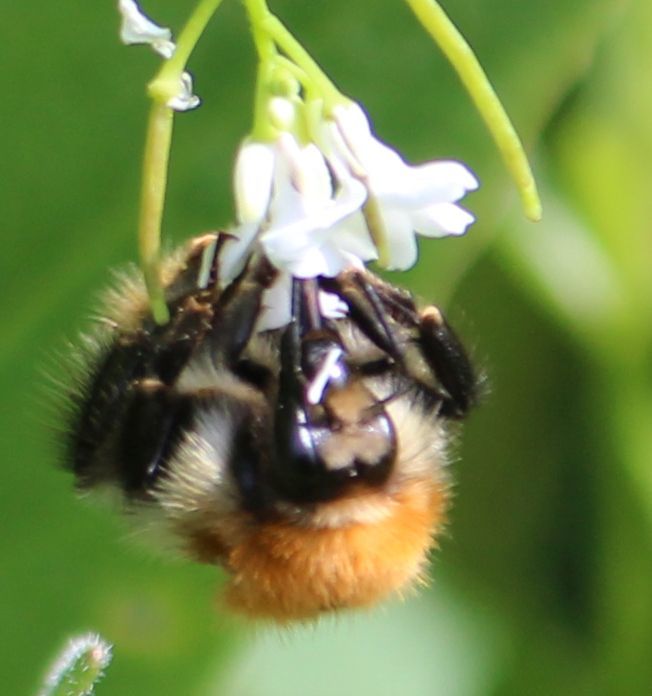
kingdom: Animalia
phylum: Arthropoda
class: Insecta
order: Hymenoptera
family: Apidae
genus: Bombus
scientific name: Bombus pascuorum
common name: Common carder bee
